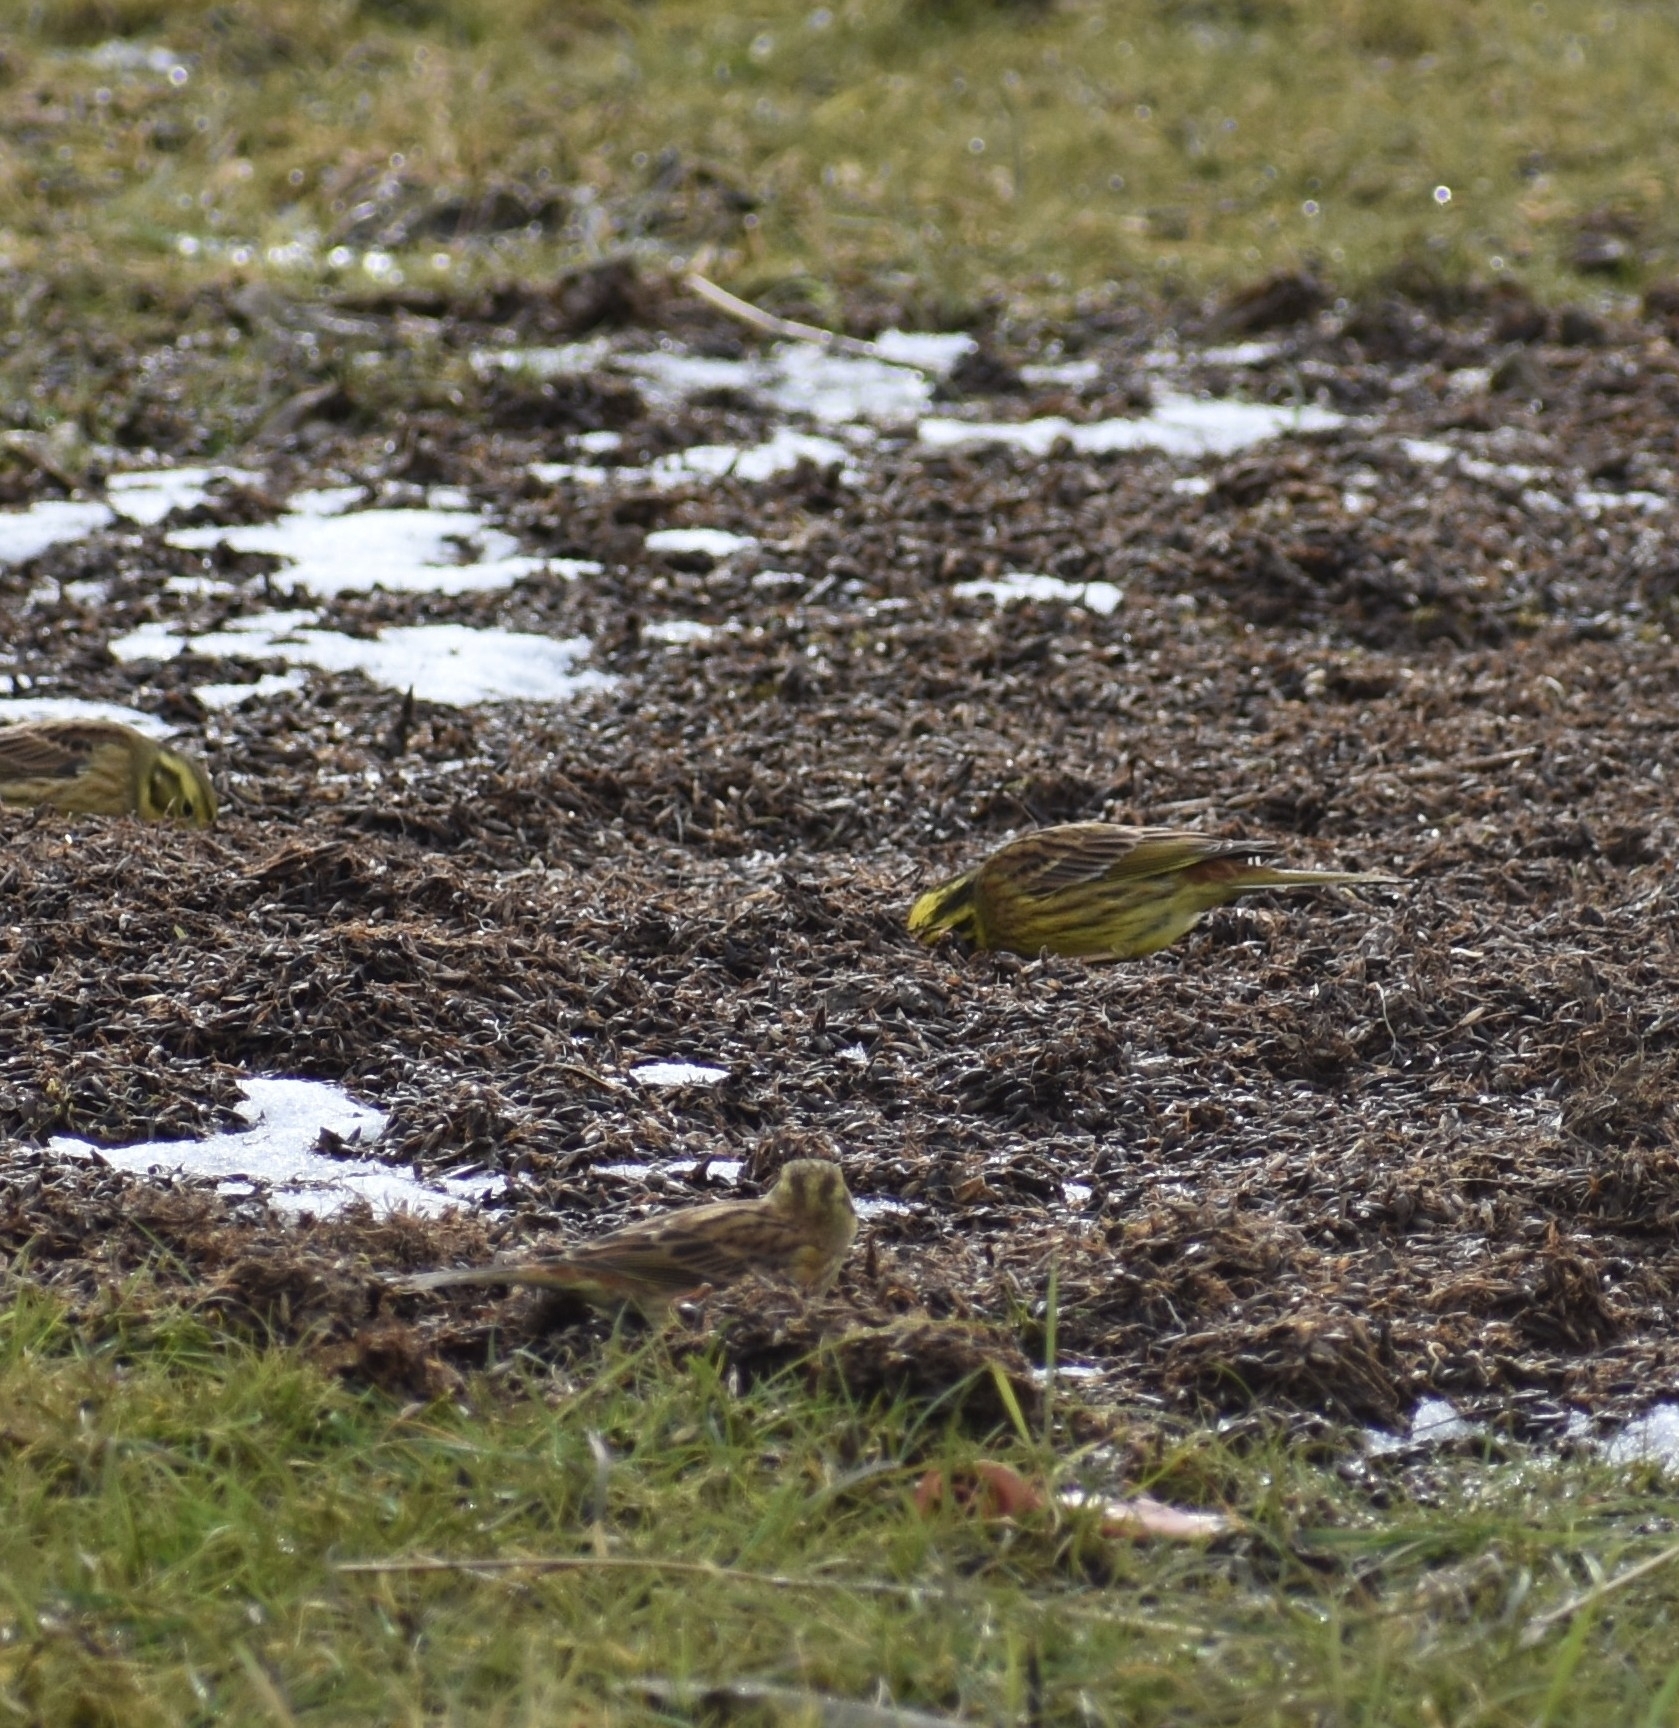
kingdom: Animalia
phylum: Chordata
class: Aves
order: Passeriformes
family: Emberizidae
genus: Emberiza
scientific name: Emberiza citrinella
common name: Yellowhammer
